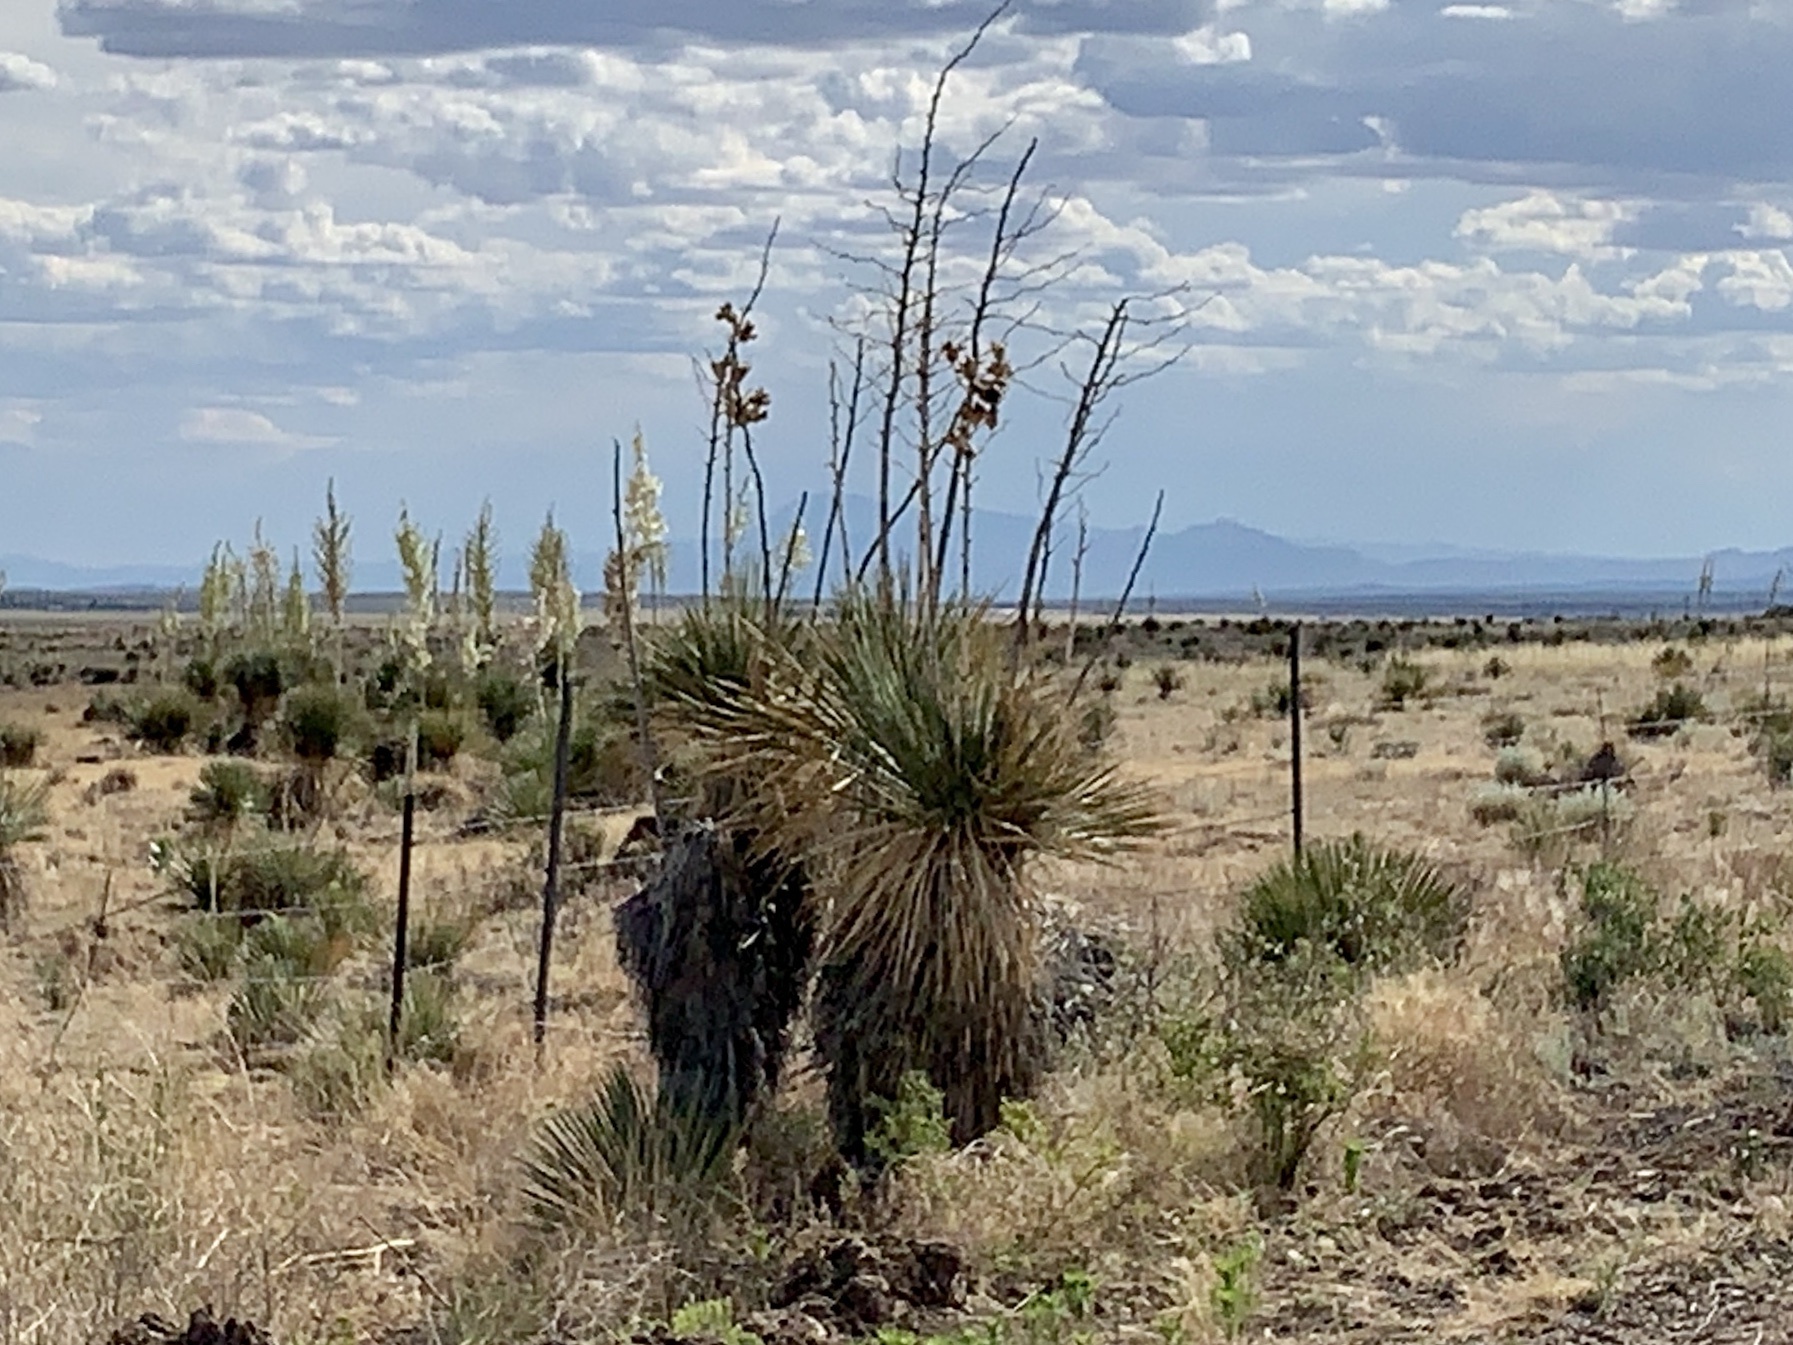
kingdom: Plantae
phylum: Tracheophyta
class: Liliopsida
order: Asparagales
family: Asparagaceae
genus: Yucca
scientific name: Yucca elata
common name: Palmella
